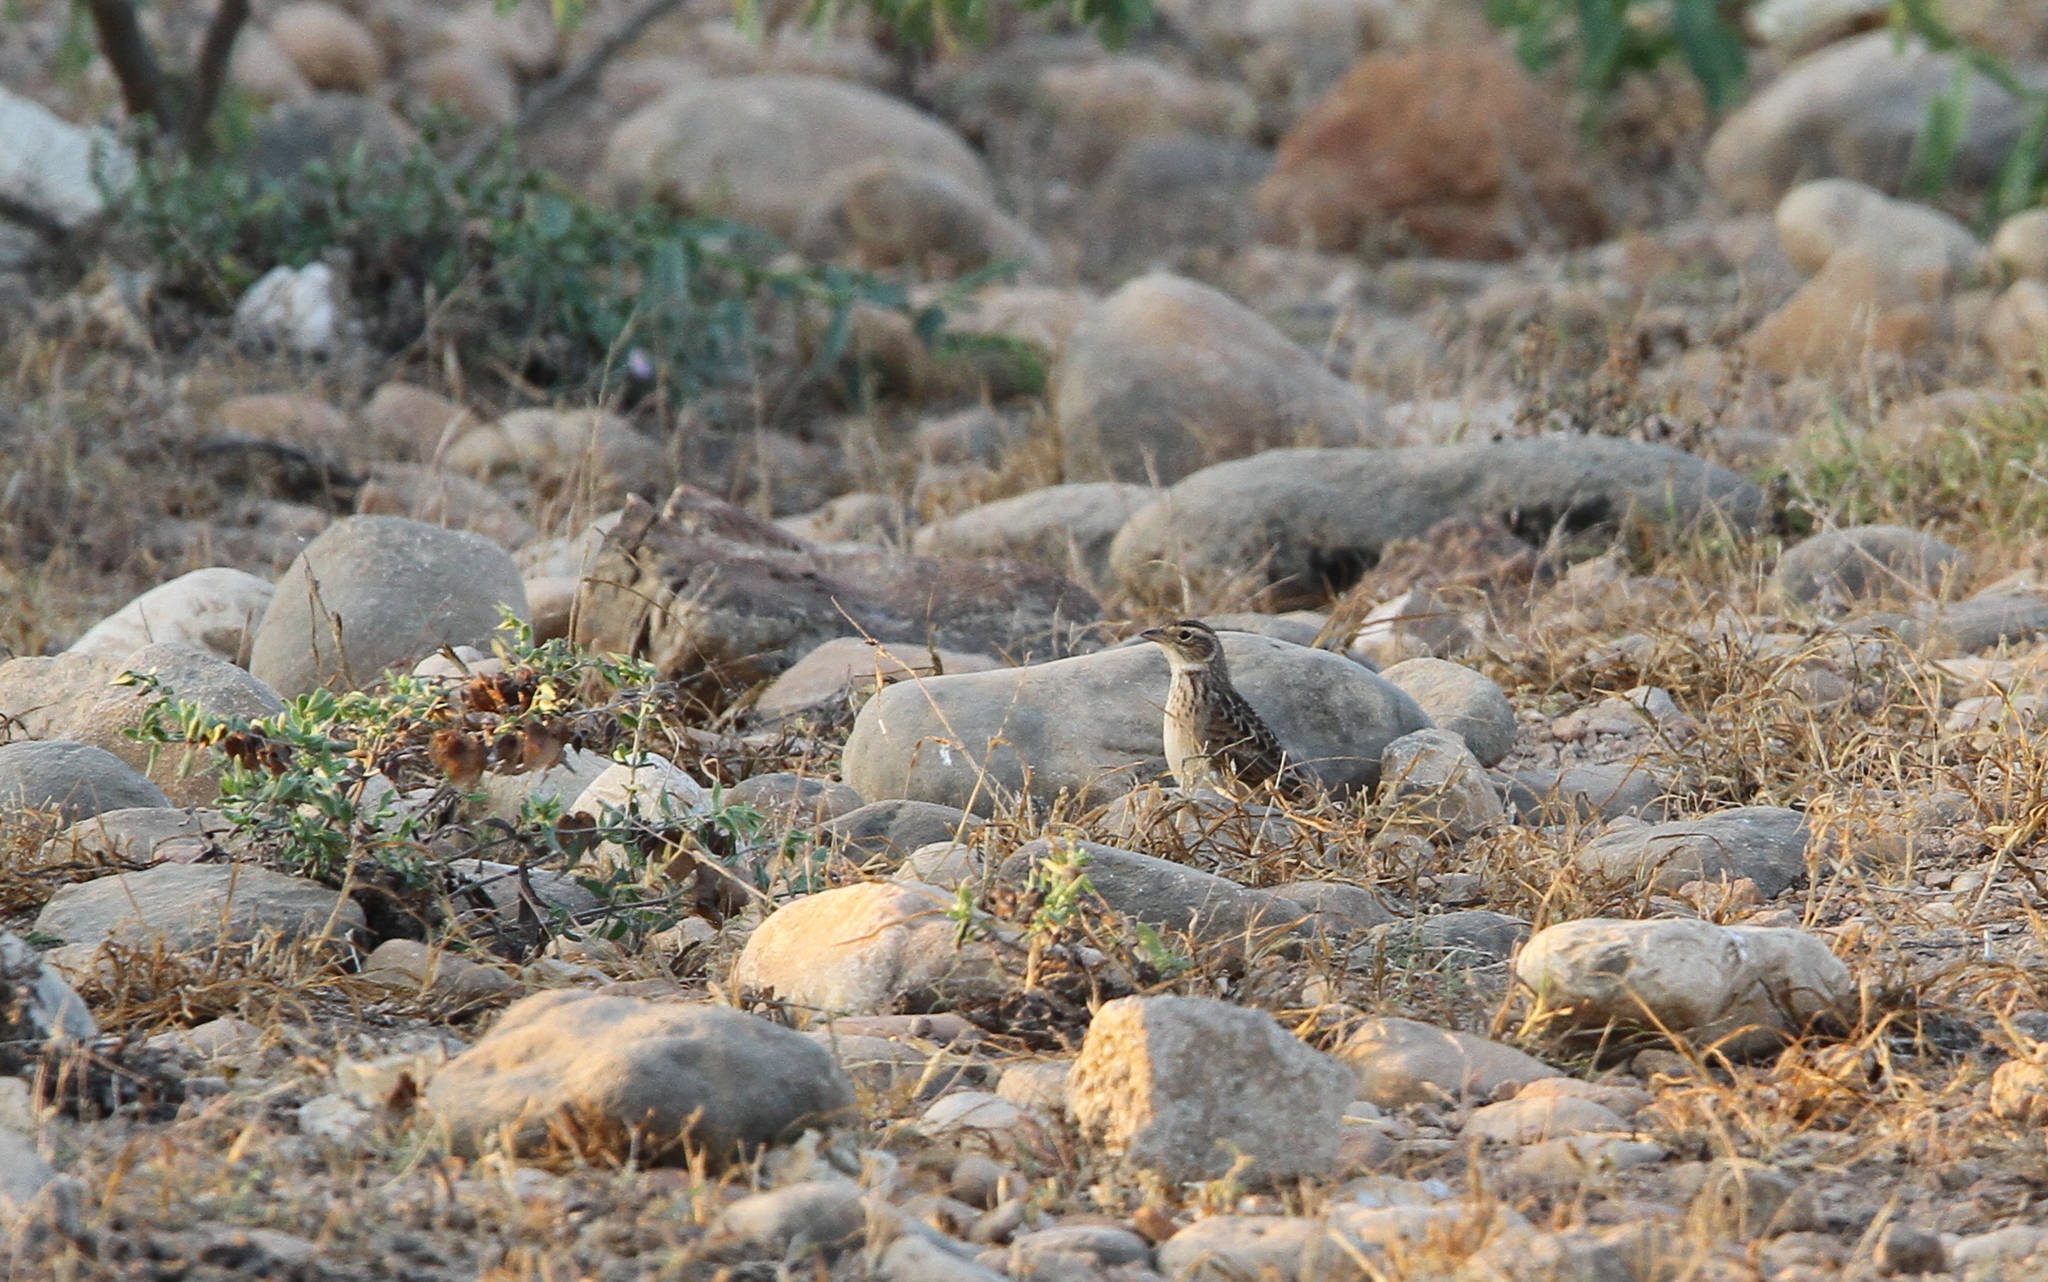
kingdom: Animalia
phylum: Chordata
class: Aves
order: Passeriformes
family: Alaudidae
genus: Mirafra
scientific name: Mirafra cantillans
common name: Singing bush lark
